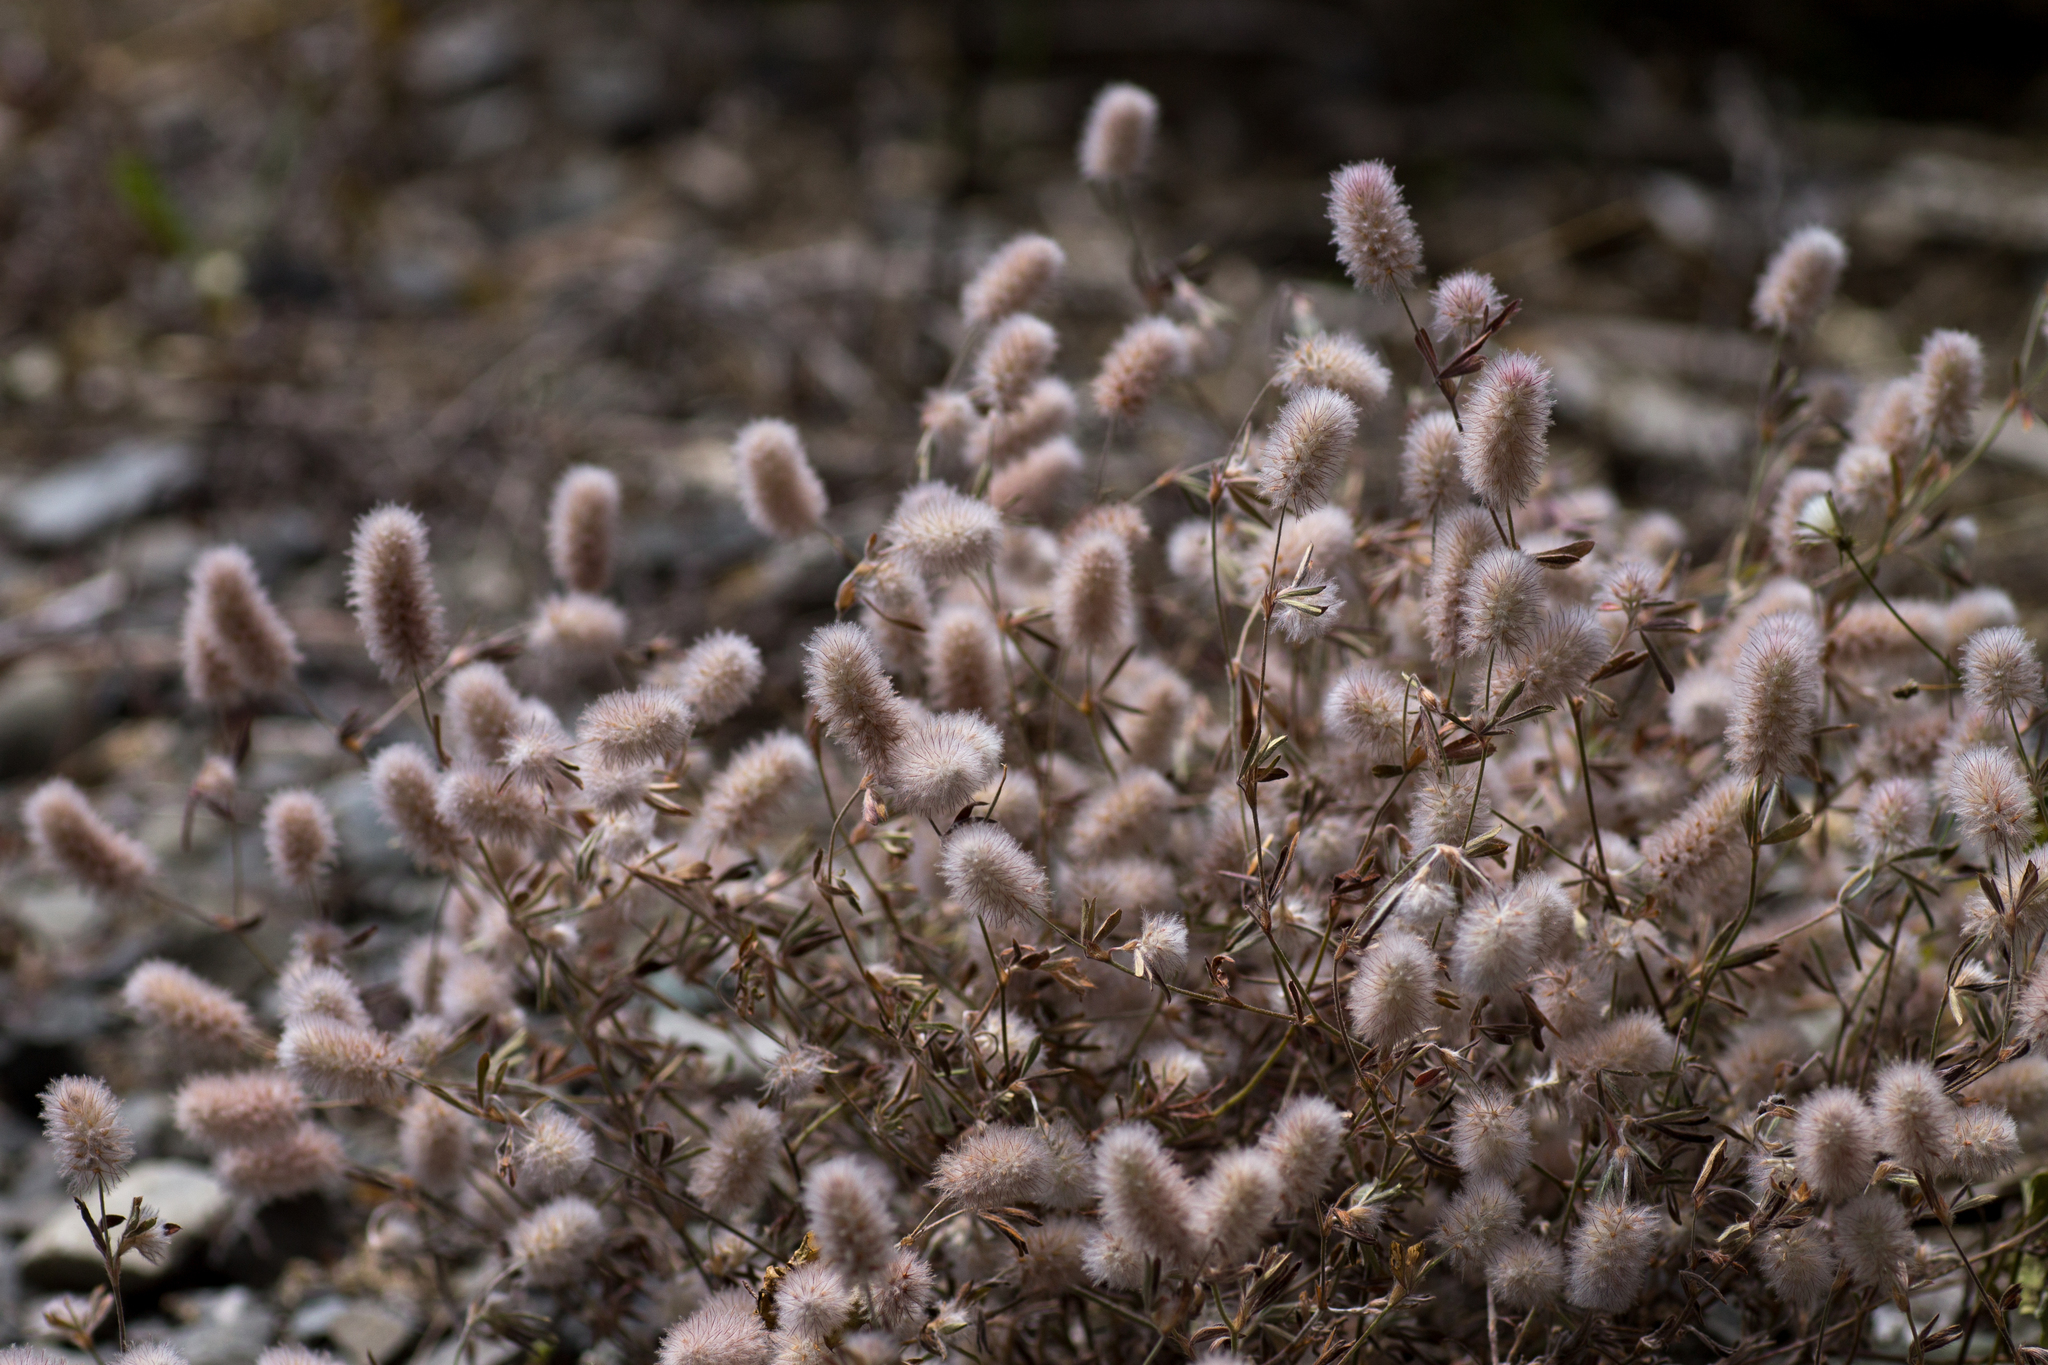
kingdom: Plantae
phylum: Tracheophyta
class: Magnoliopsida
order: Fabales
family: Fabaceae
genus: Trifolium
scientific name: Trifolium arvense
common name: Hare's-foot clover
